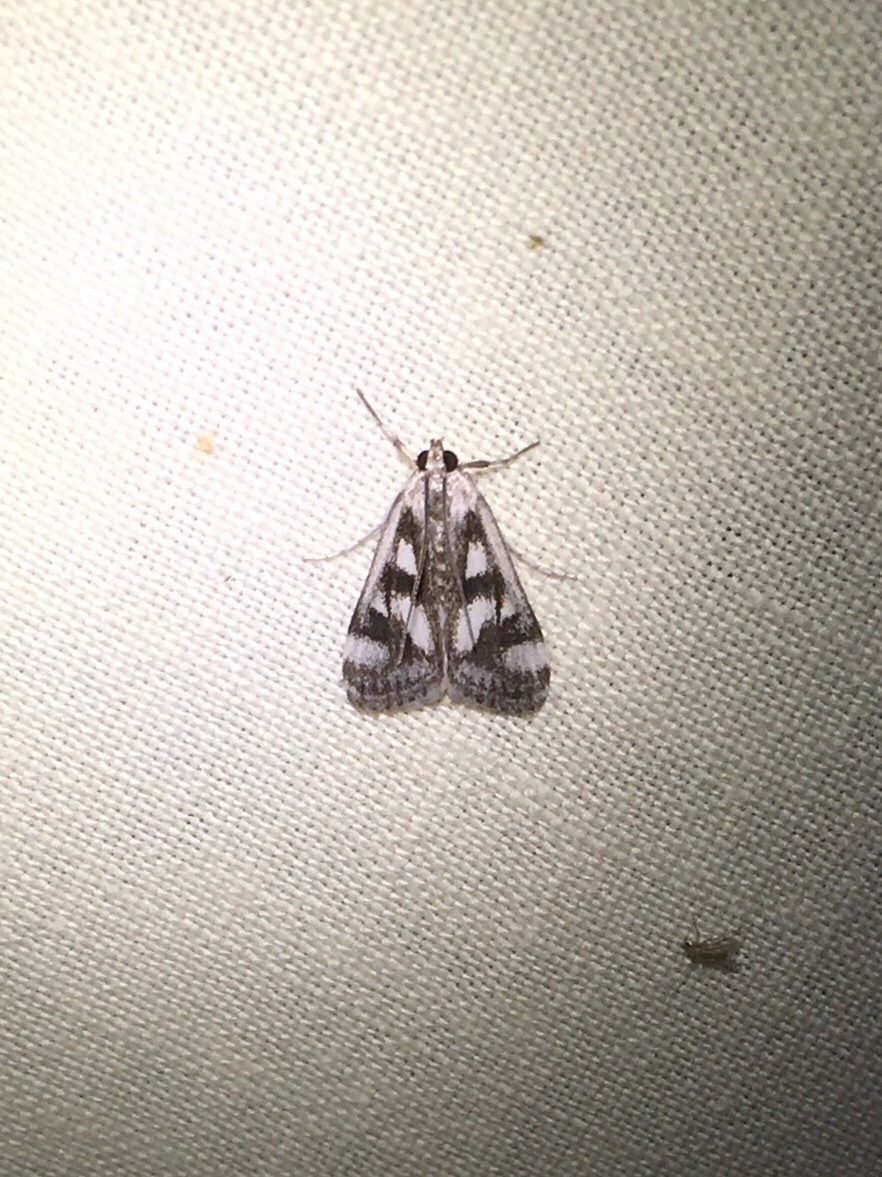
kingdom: Animalia
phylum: Arthropoda
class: Insecta
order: Lepidoptera
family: Crambidae
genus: Parapoynx
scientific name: Parapoynx maculalis
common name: Polymorphic pondweed moth
